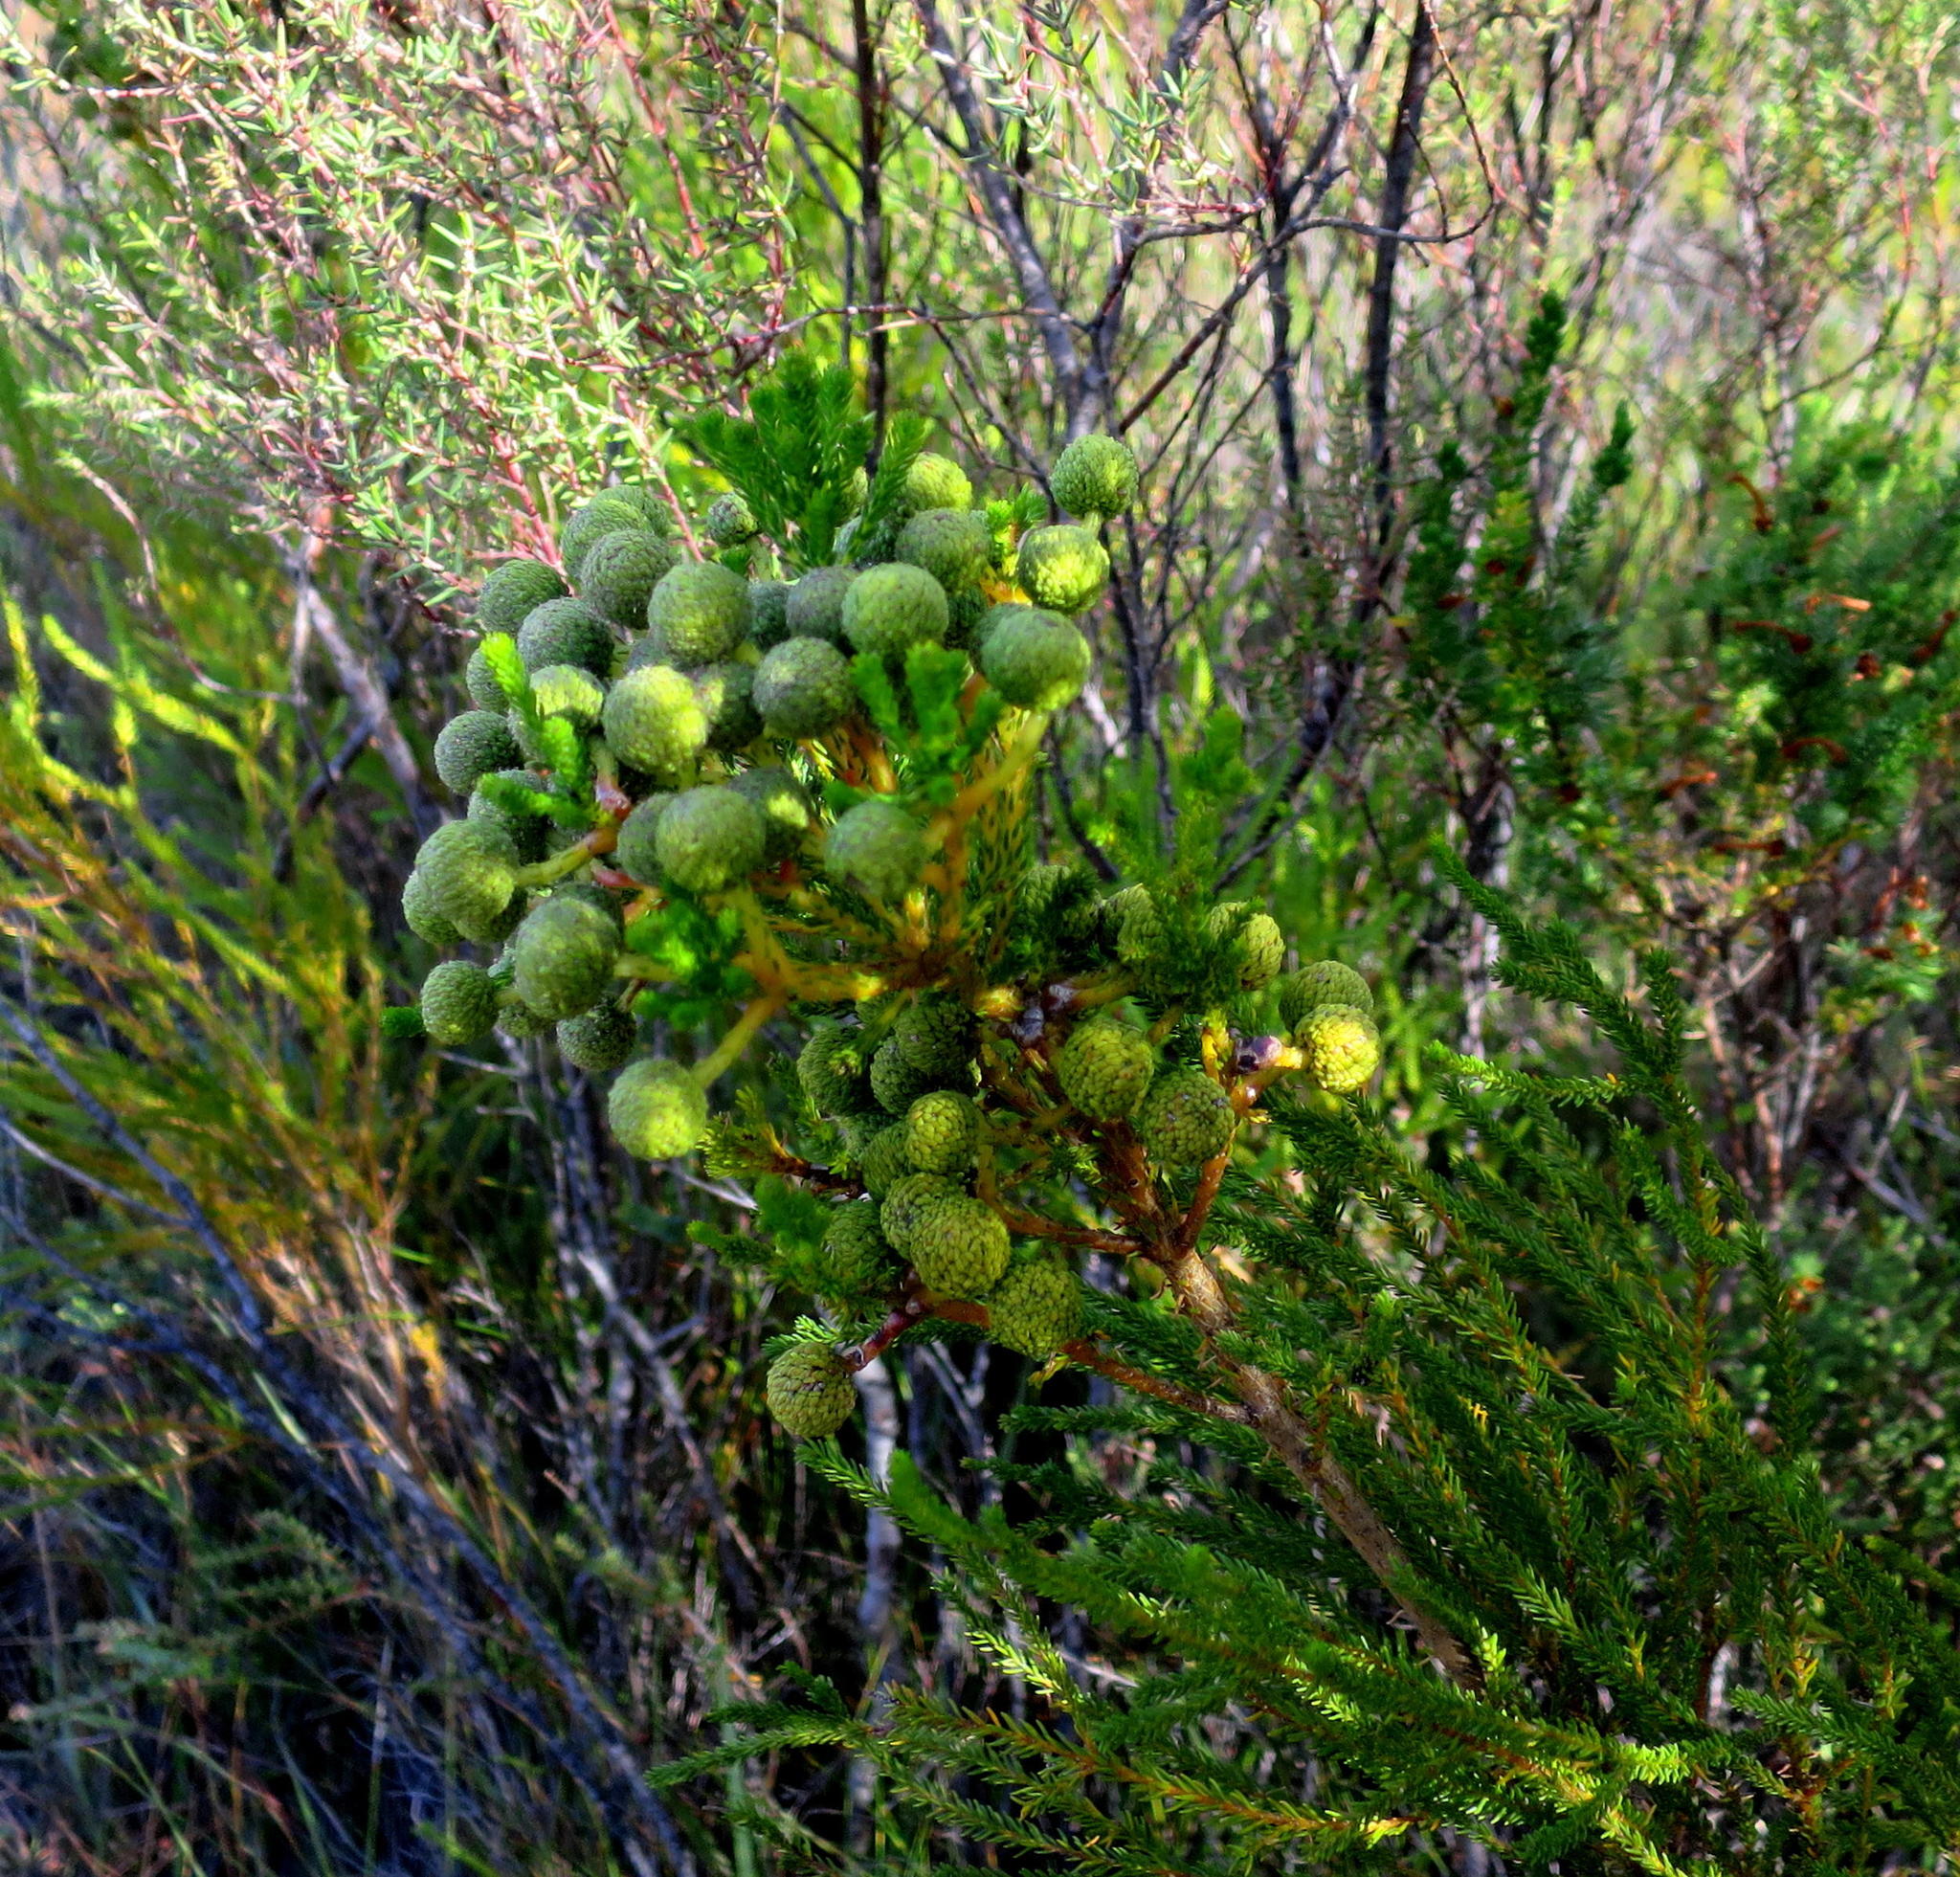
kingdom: Plantae
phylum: Tracheophyta
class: Magnoliopsida
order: Bruniales
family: Bruniaceae
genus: Berzelia
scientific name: Berzelia intermedia
